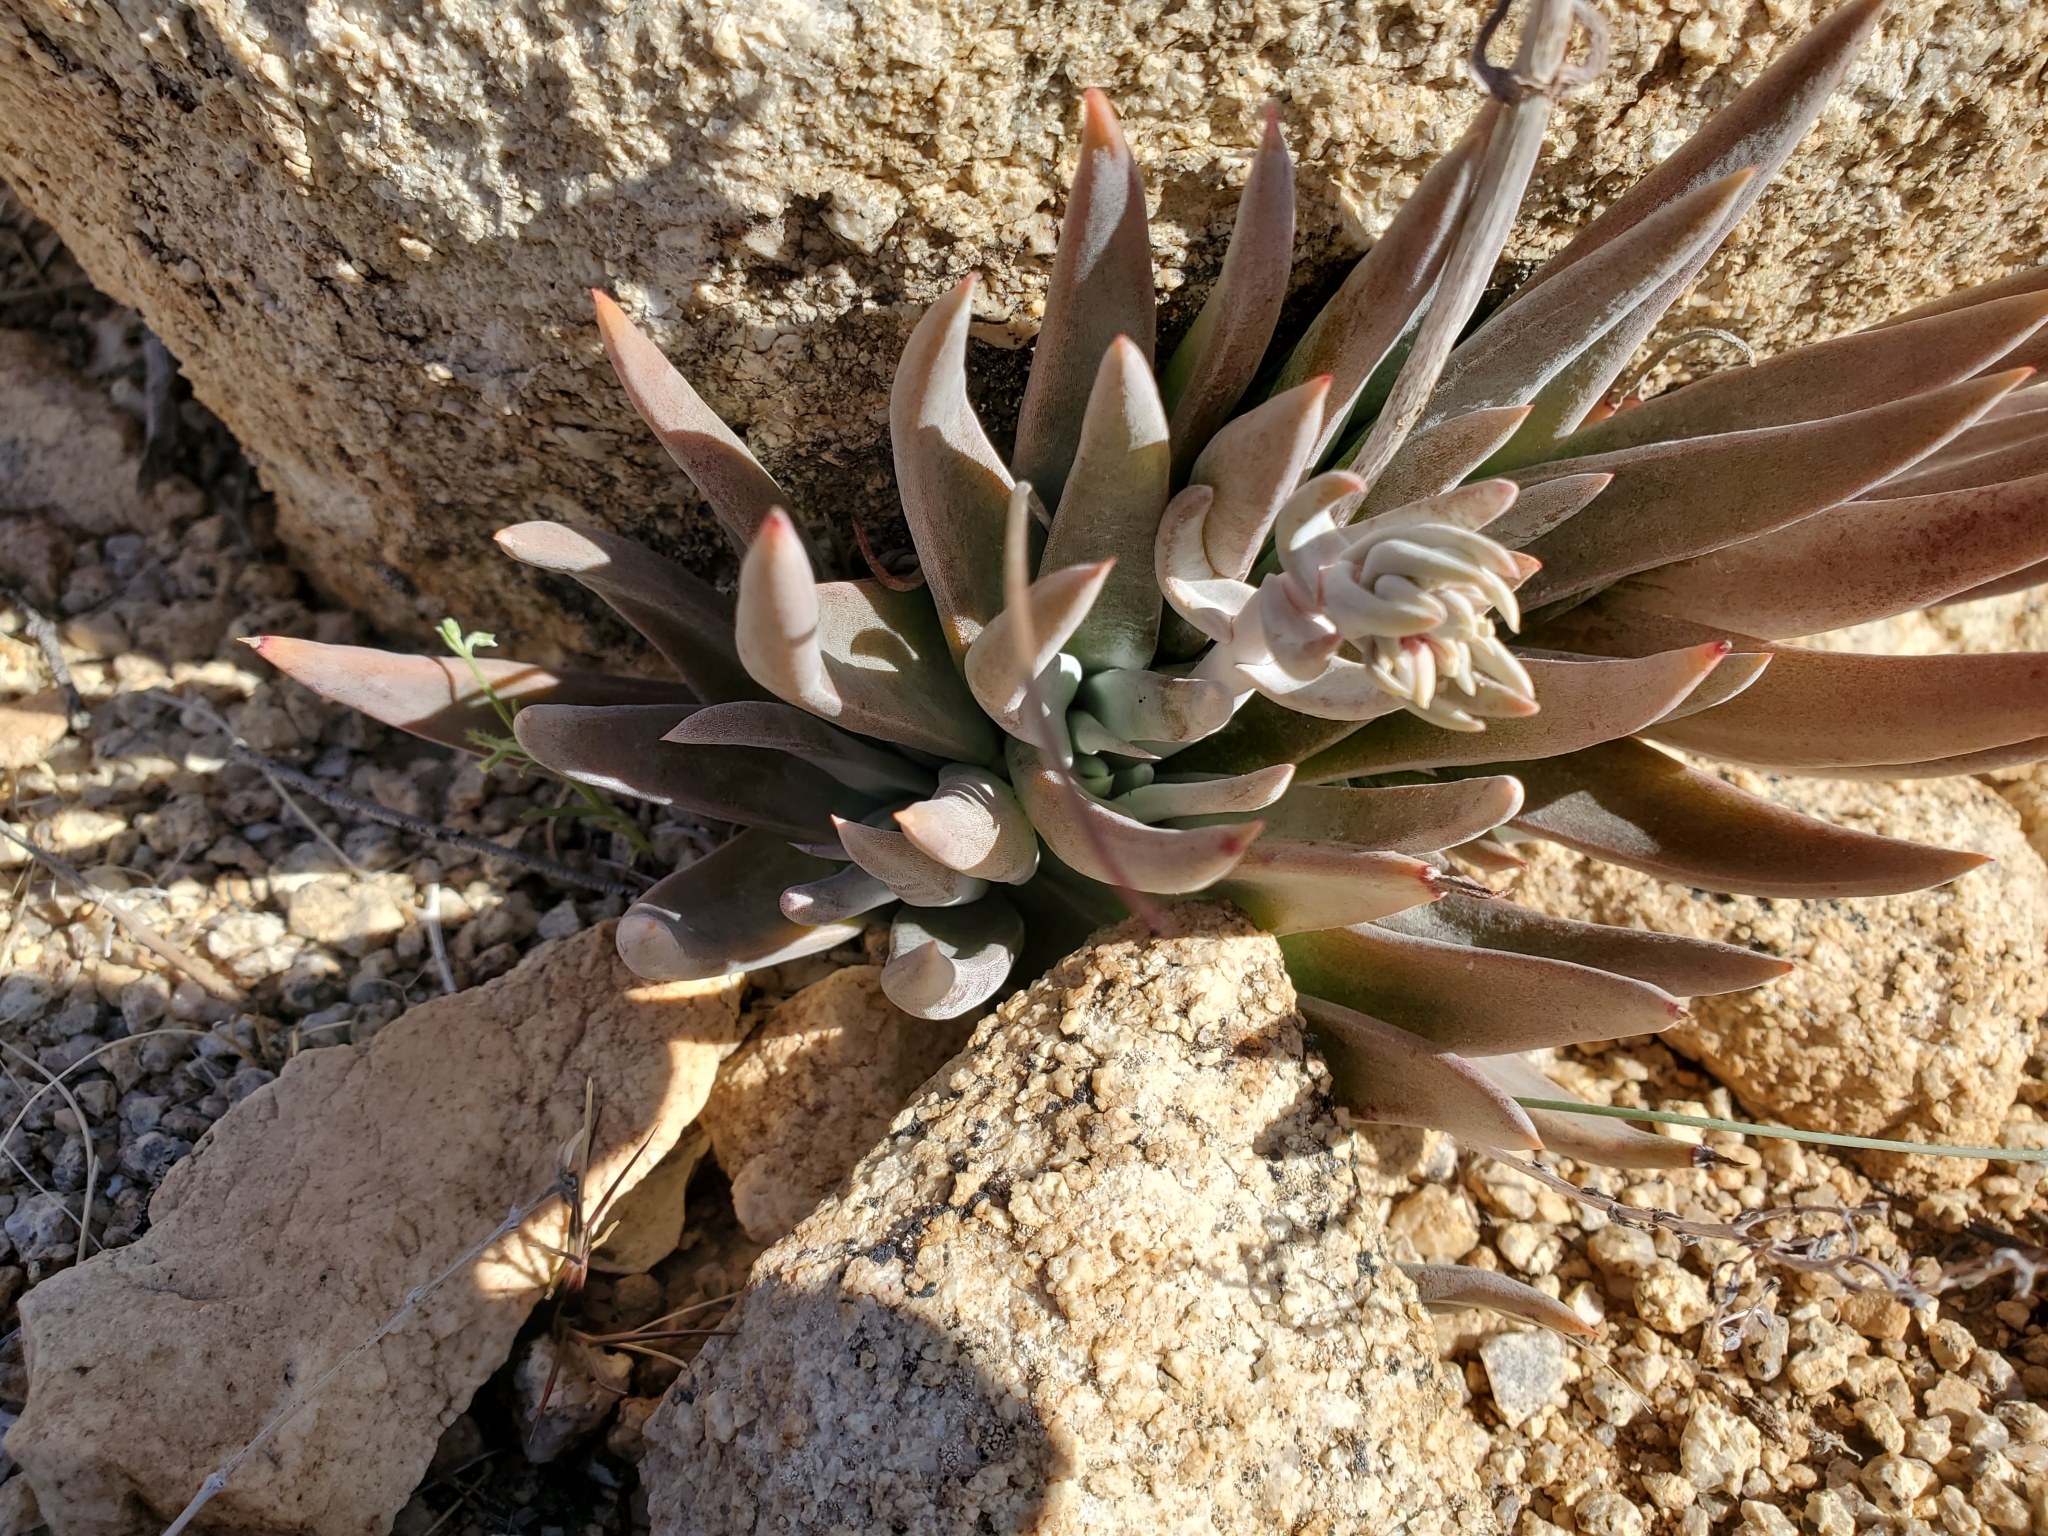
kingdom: Plantae
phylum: Tracheophyta
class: Magnoliopsida
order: Saxifragales
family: Crassulaceae
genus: Dudleya
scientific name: Dudleya saxosa
